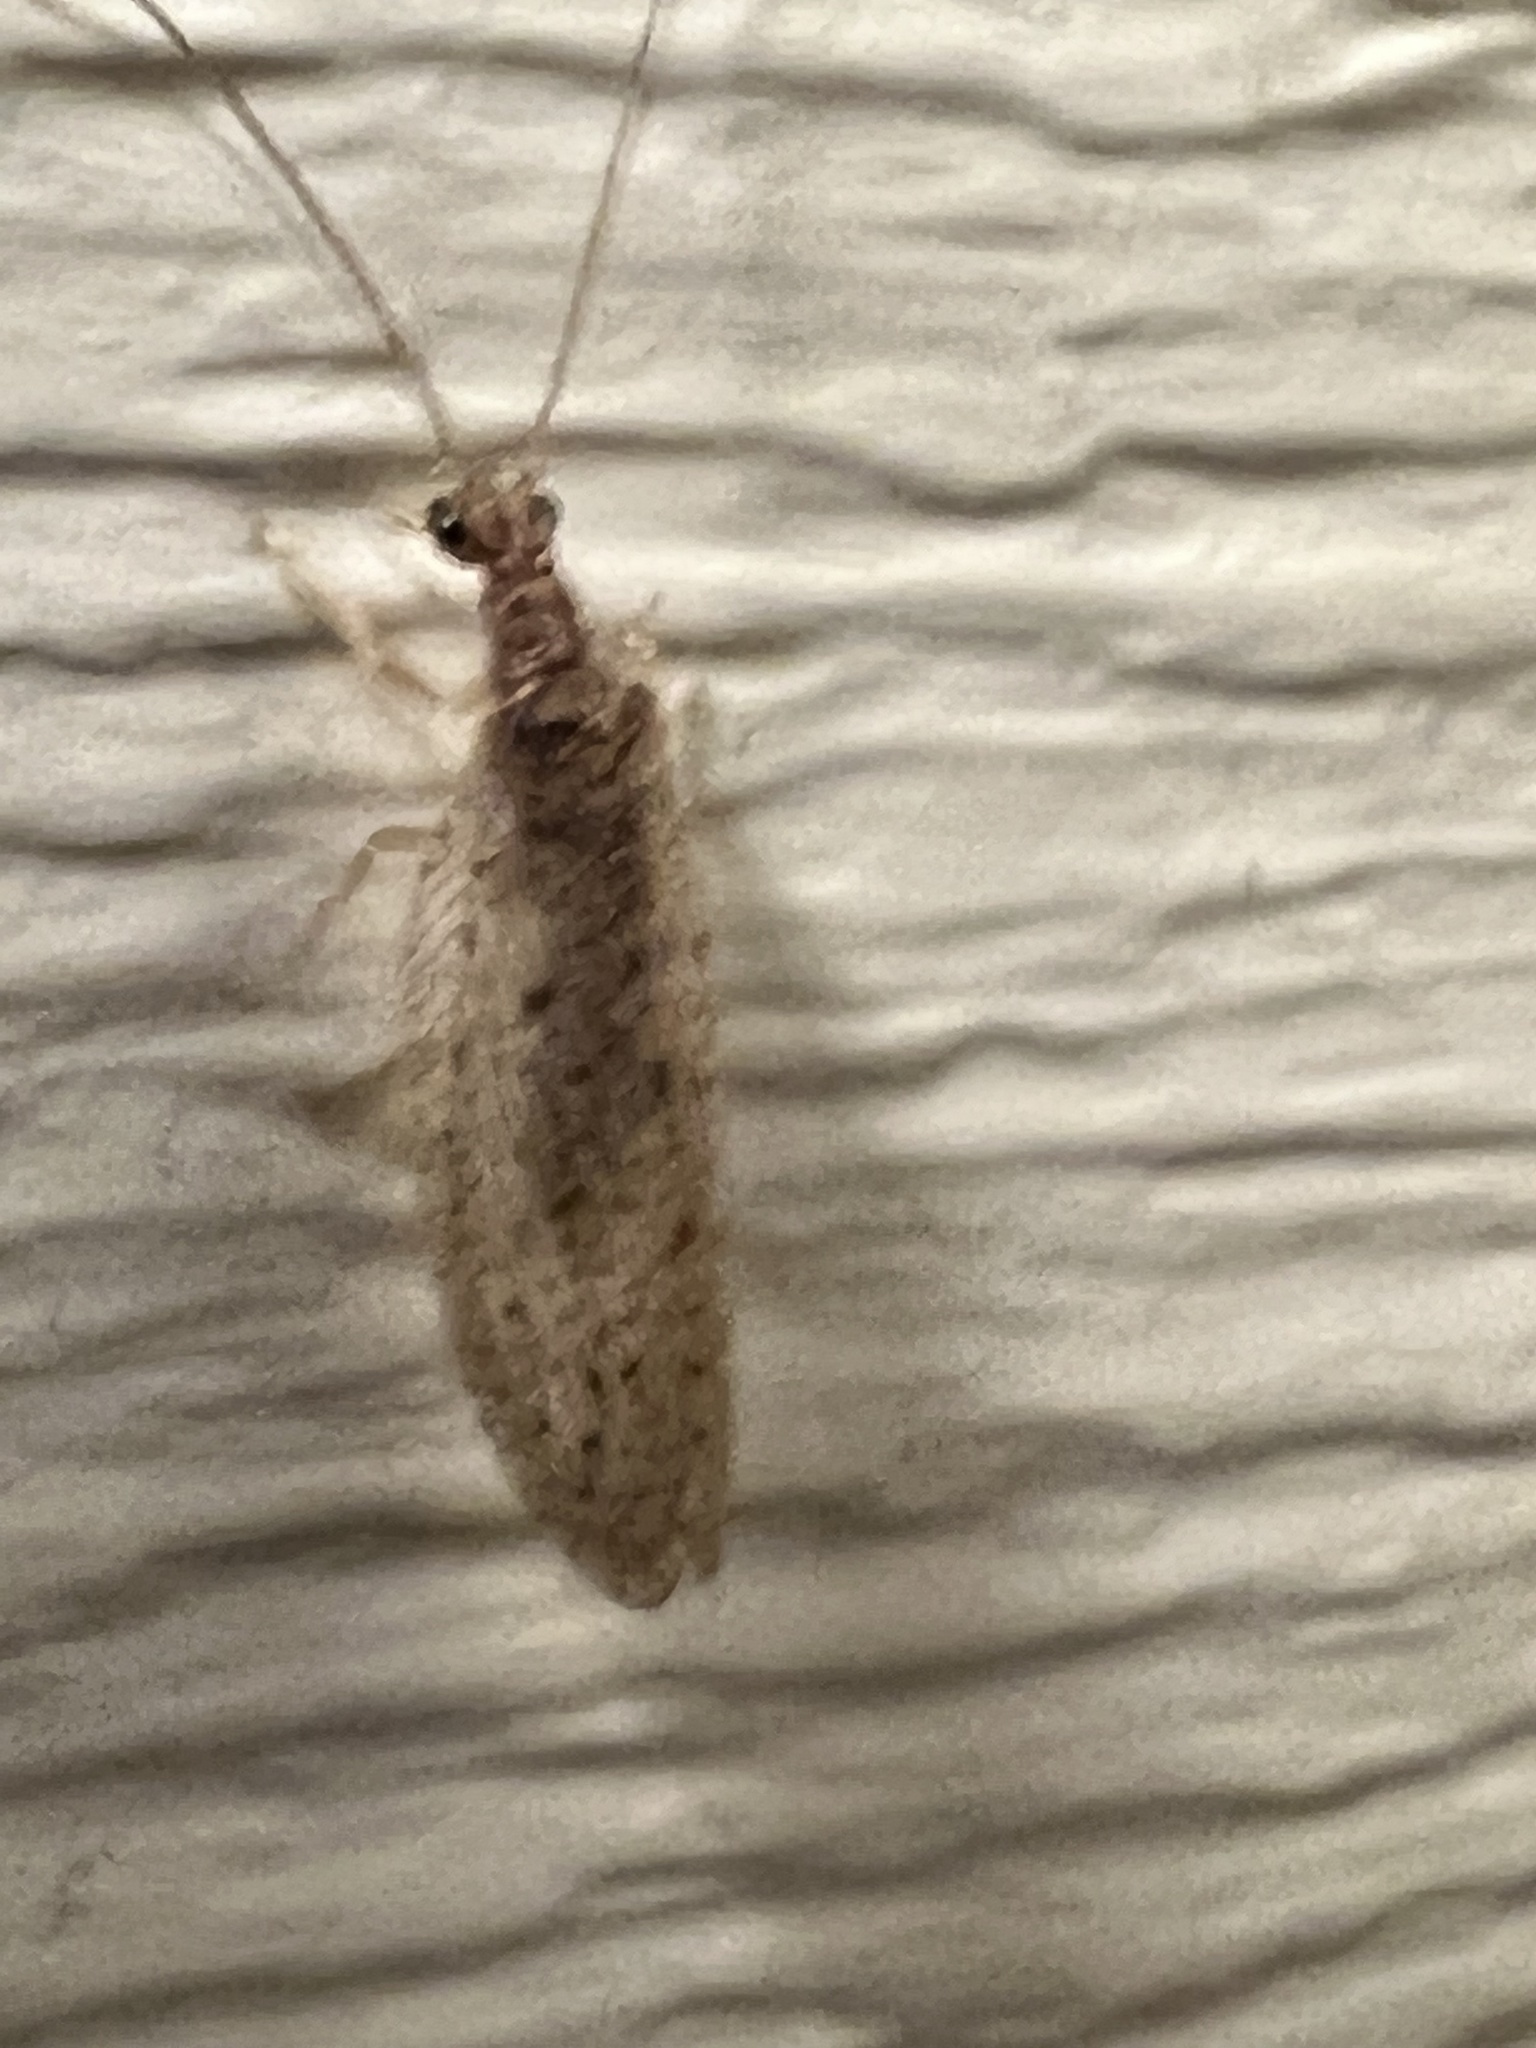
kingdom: Animalia
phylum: Arthropoda
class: Insecta
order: Neuroptera
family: Hemerobiidae
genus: Micromus
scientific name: Micromus subanticus
